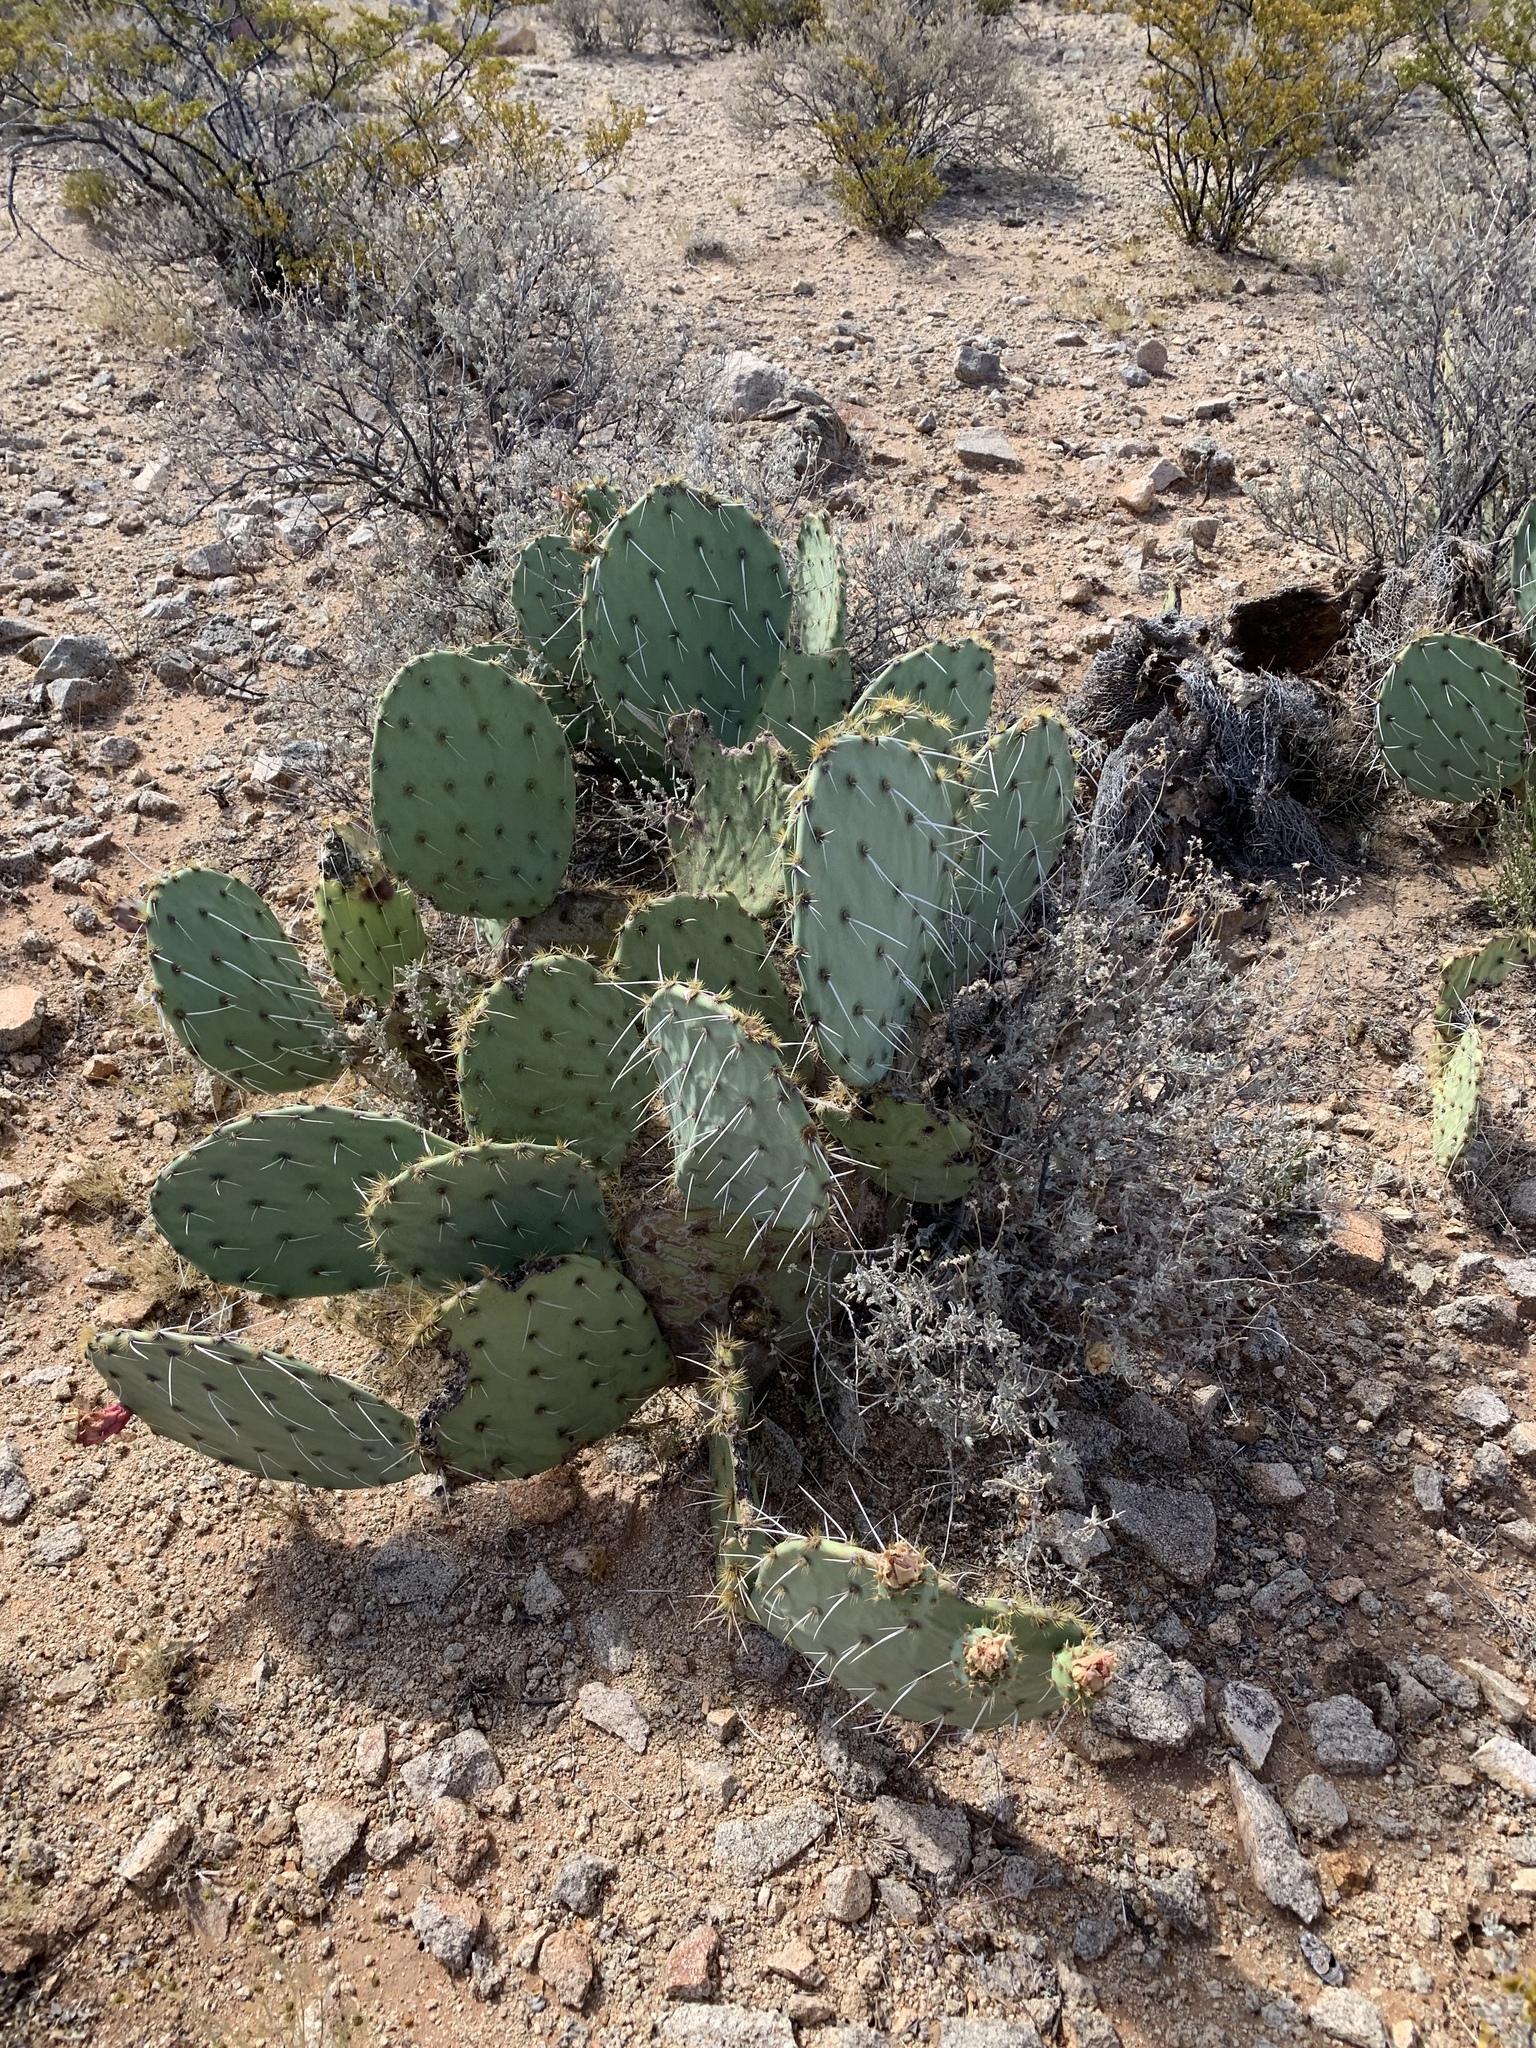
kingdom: Plantae
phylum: Tracheophyta
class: Magnoliopsida
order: Caryophyllales
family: Cactaceae
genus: Opuntia
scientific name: Opuntia engelmannii
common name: Cactus-apple
